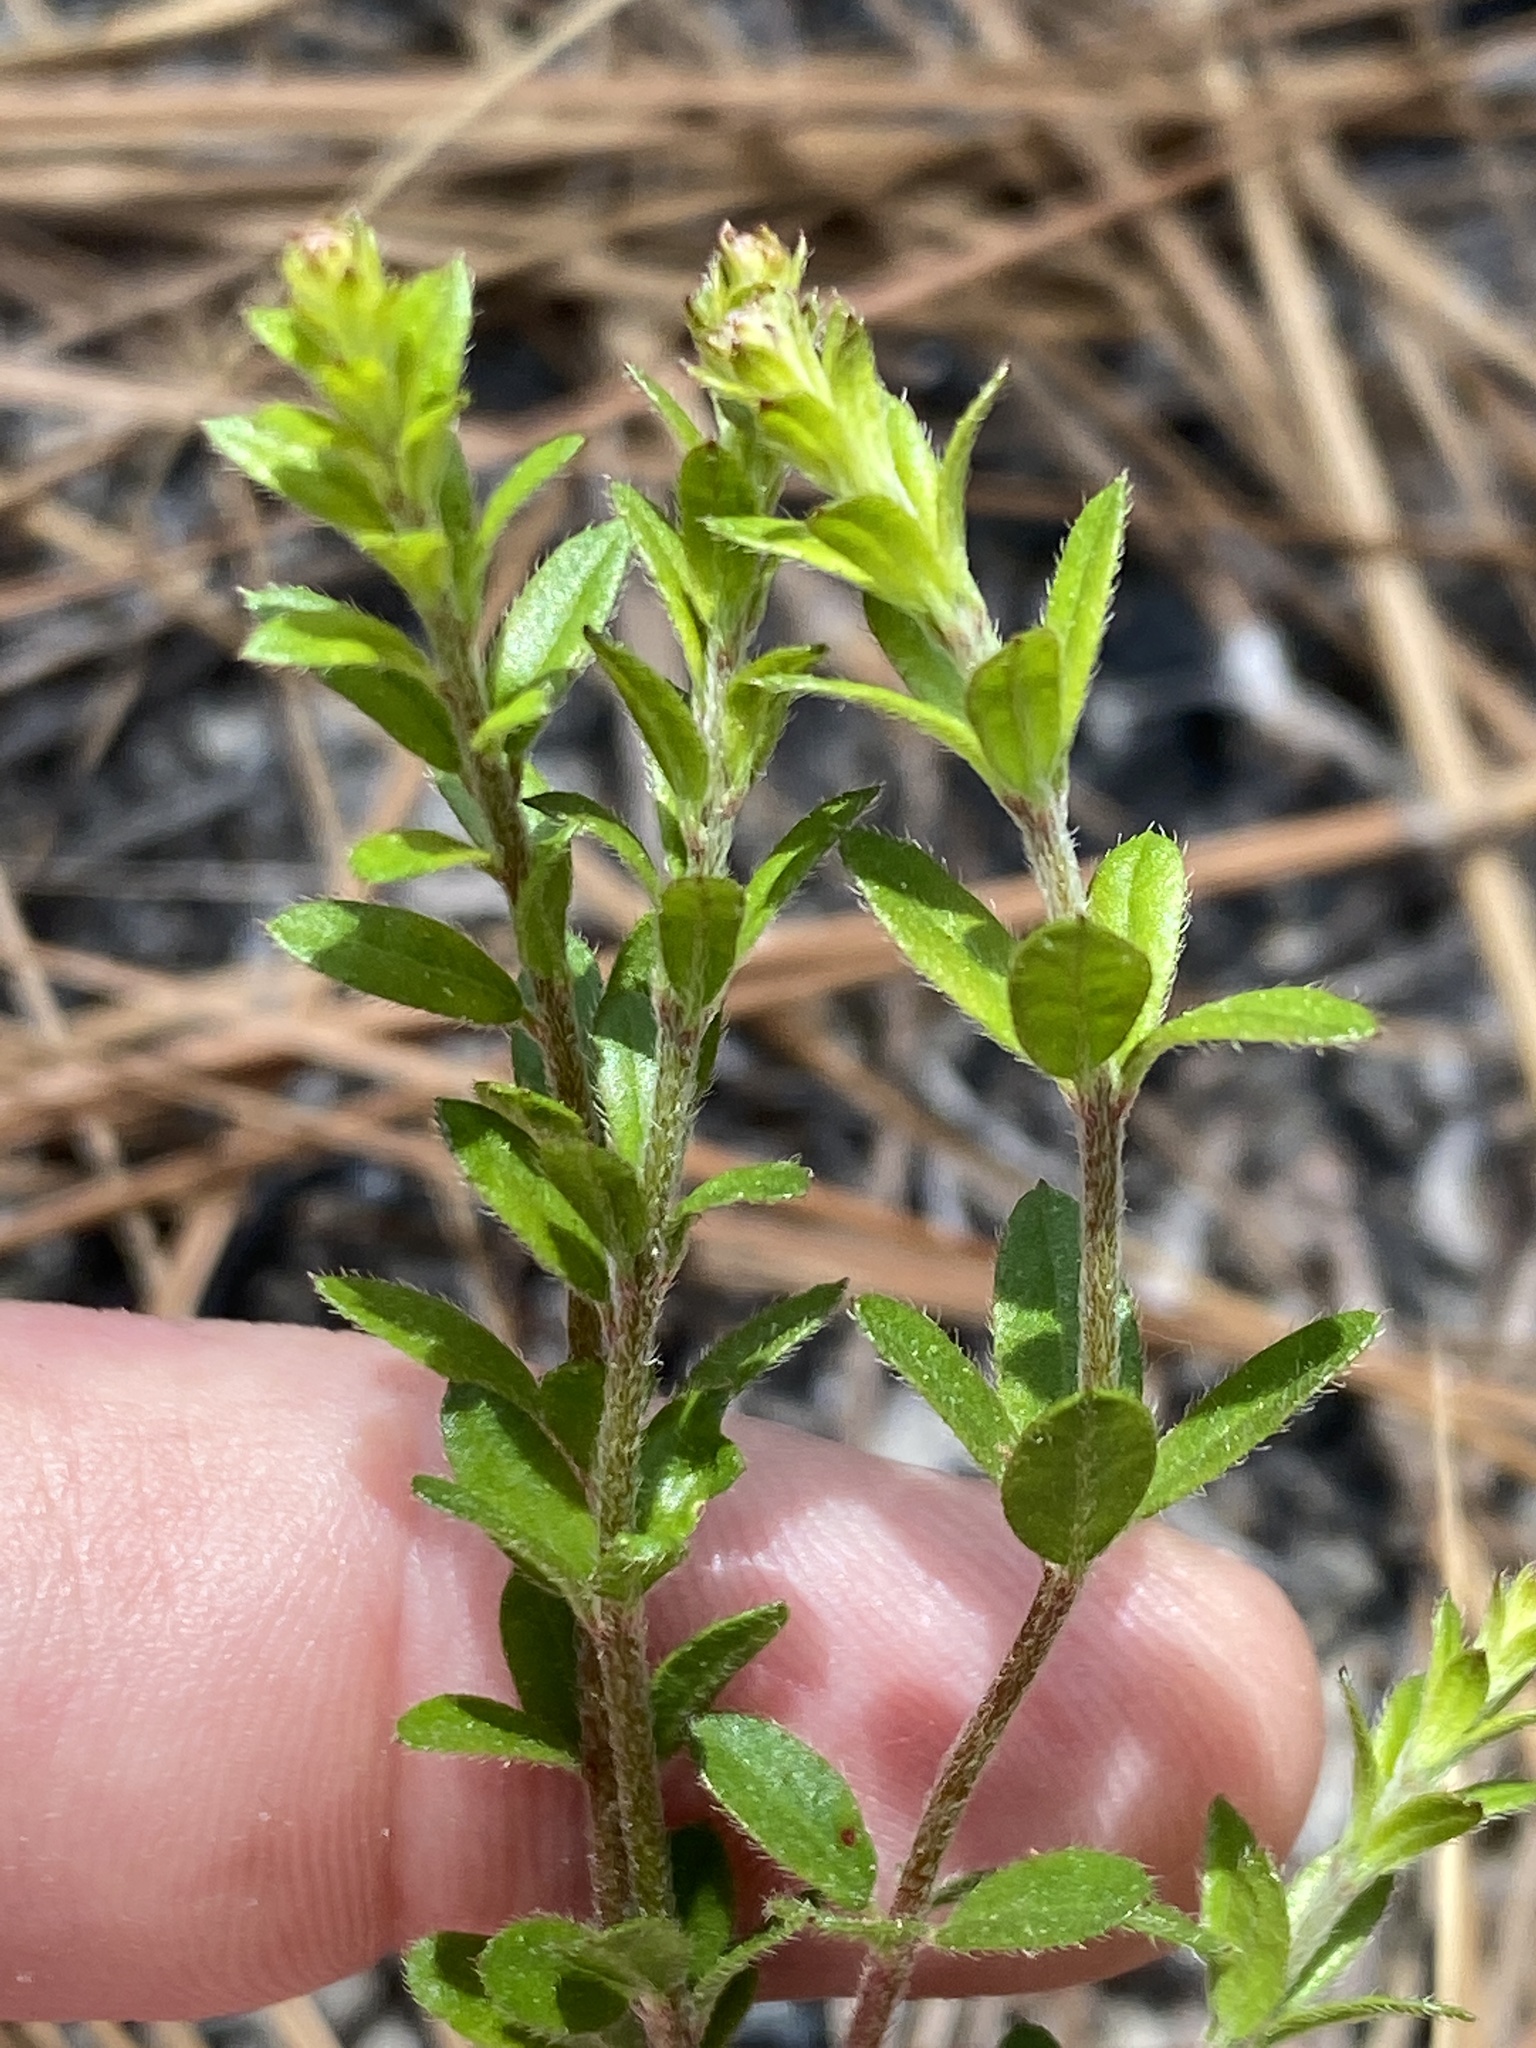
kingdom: Plantae
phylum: Tracheophyta
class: Magnoliopsida
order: Malvales
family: Cistaceae
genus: Lechea
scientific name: Lechea mucronata
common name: Hairy pinweed
